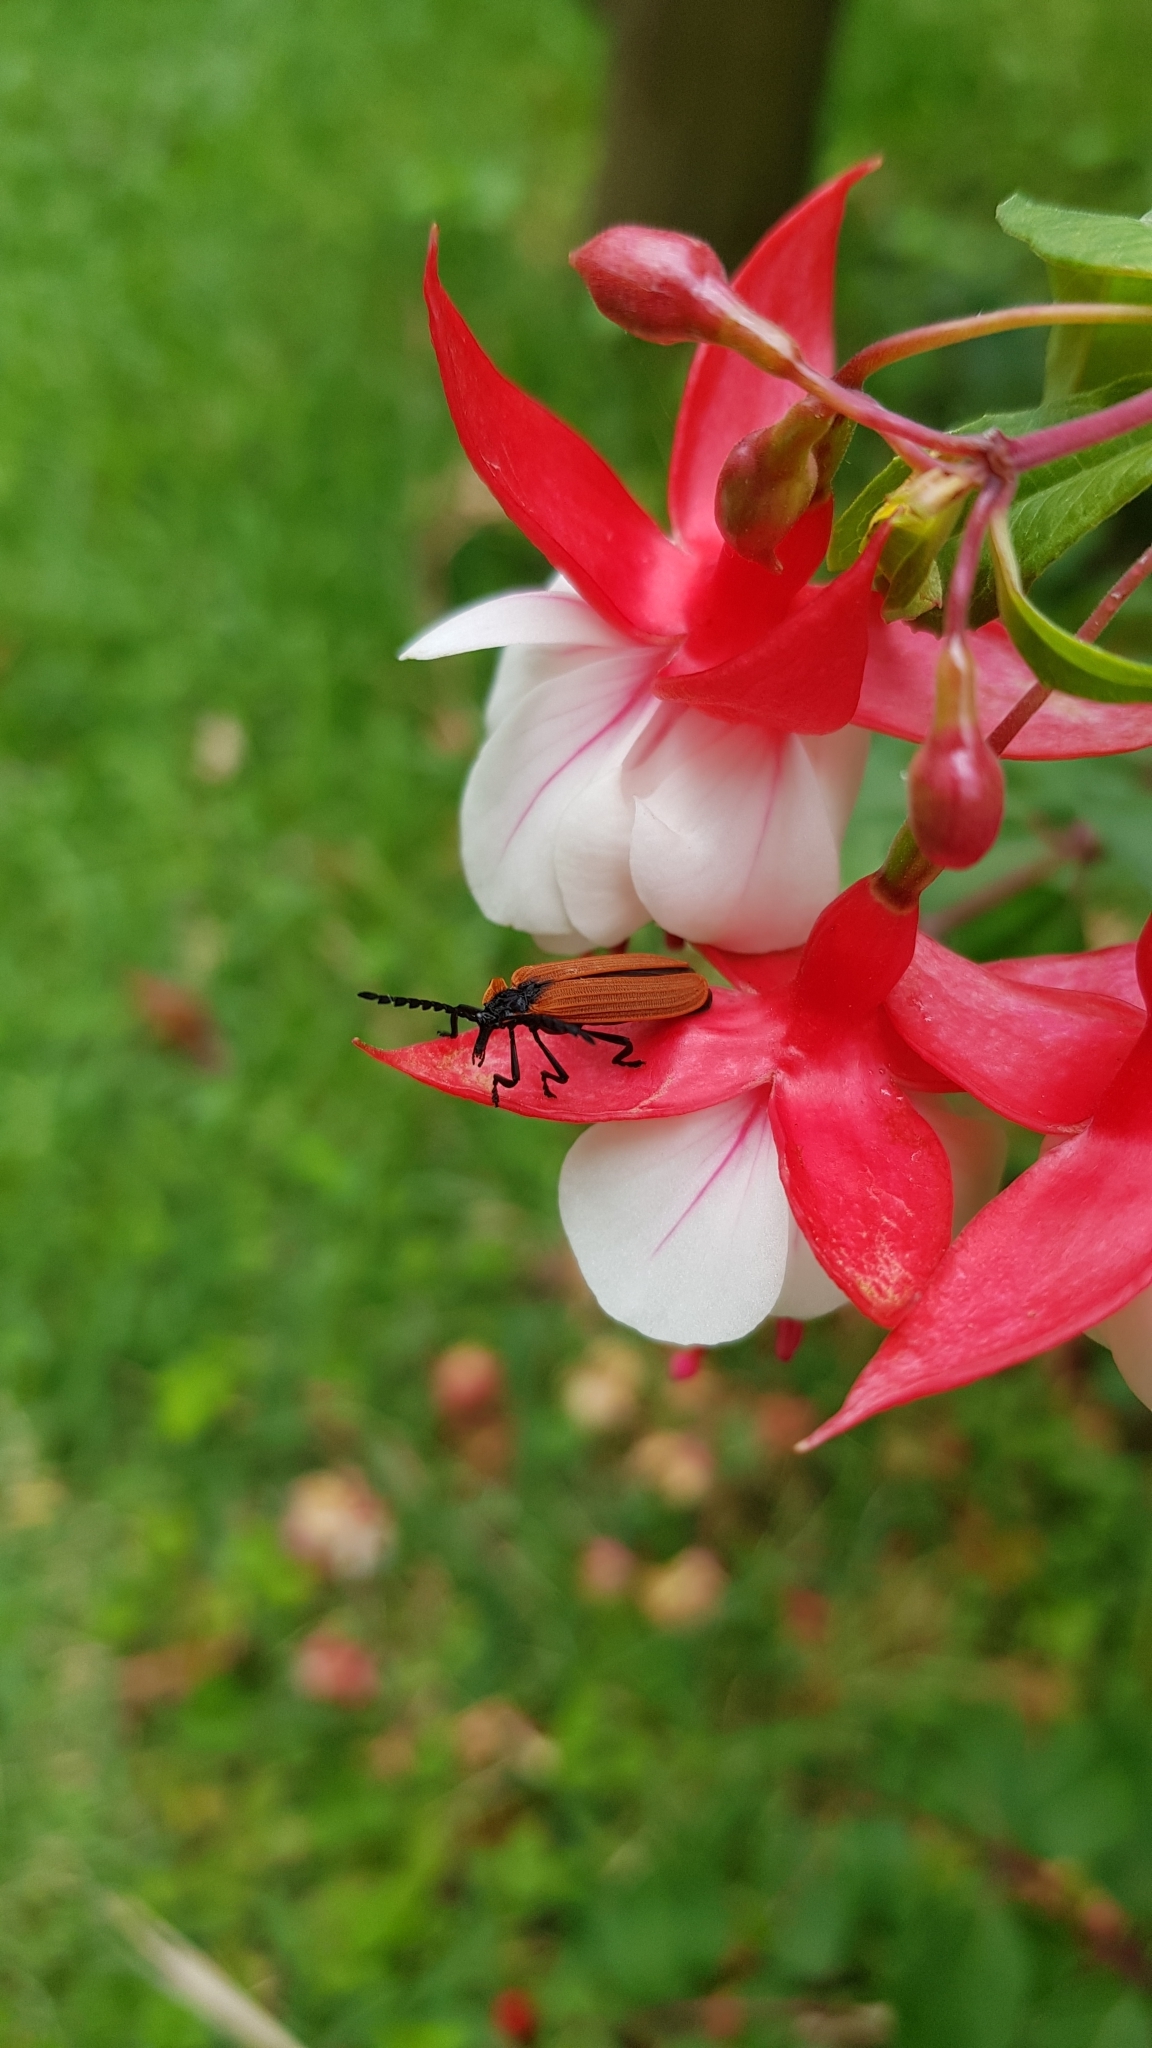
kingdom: Animalia
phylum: Arthropoda
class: Insecta
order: Coleoptera
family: Lycidae
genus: Metriorrhynchus
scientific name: Metriorrhynchus
